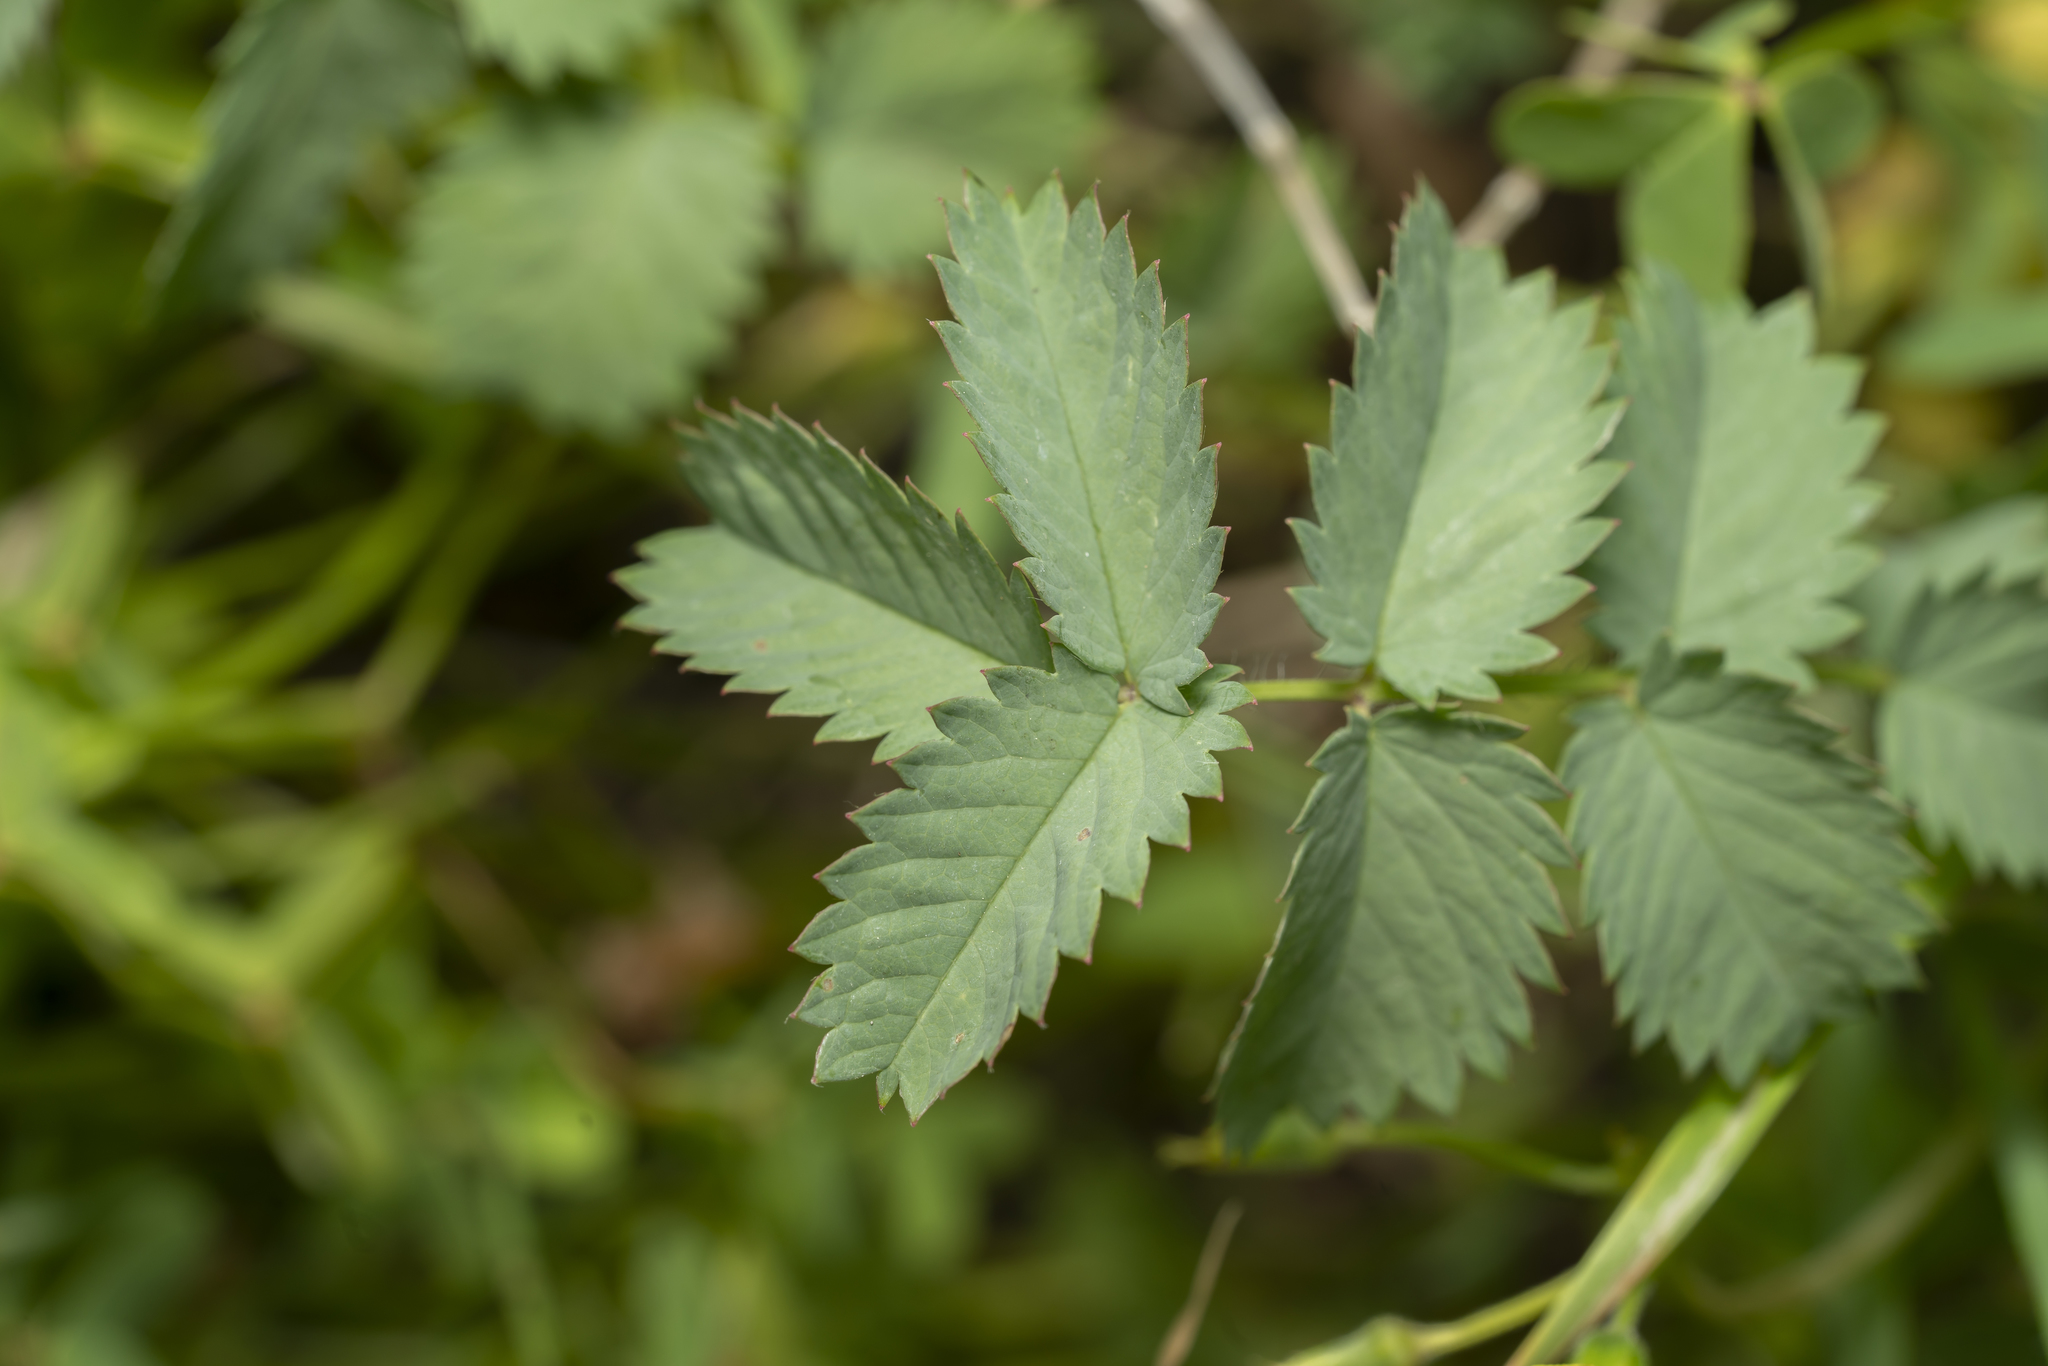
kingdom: Plantae
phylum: Tracheophyta
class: Magnoliopsida
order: Rosales
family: Rosaceae
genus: Sanguisorba
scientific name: Sanguisorba
